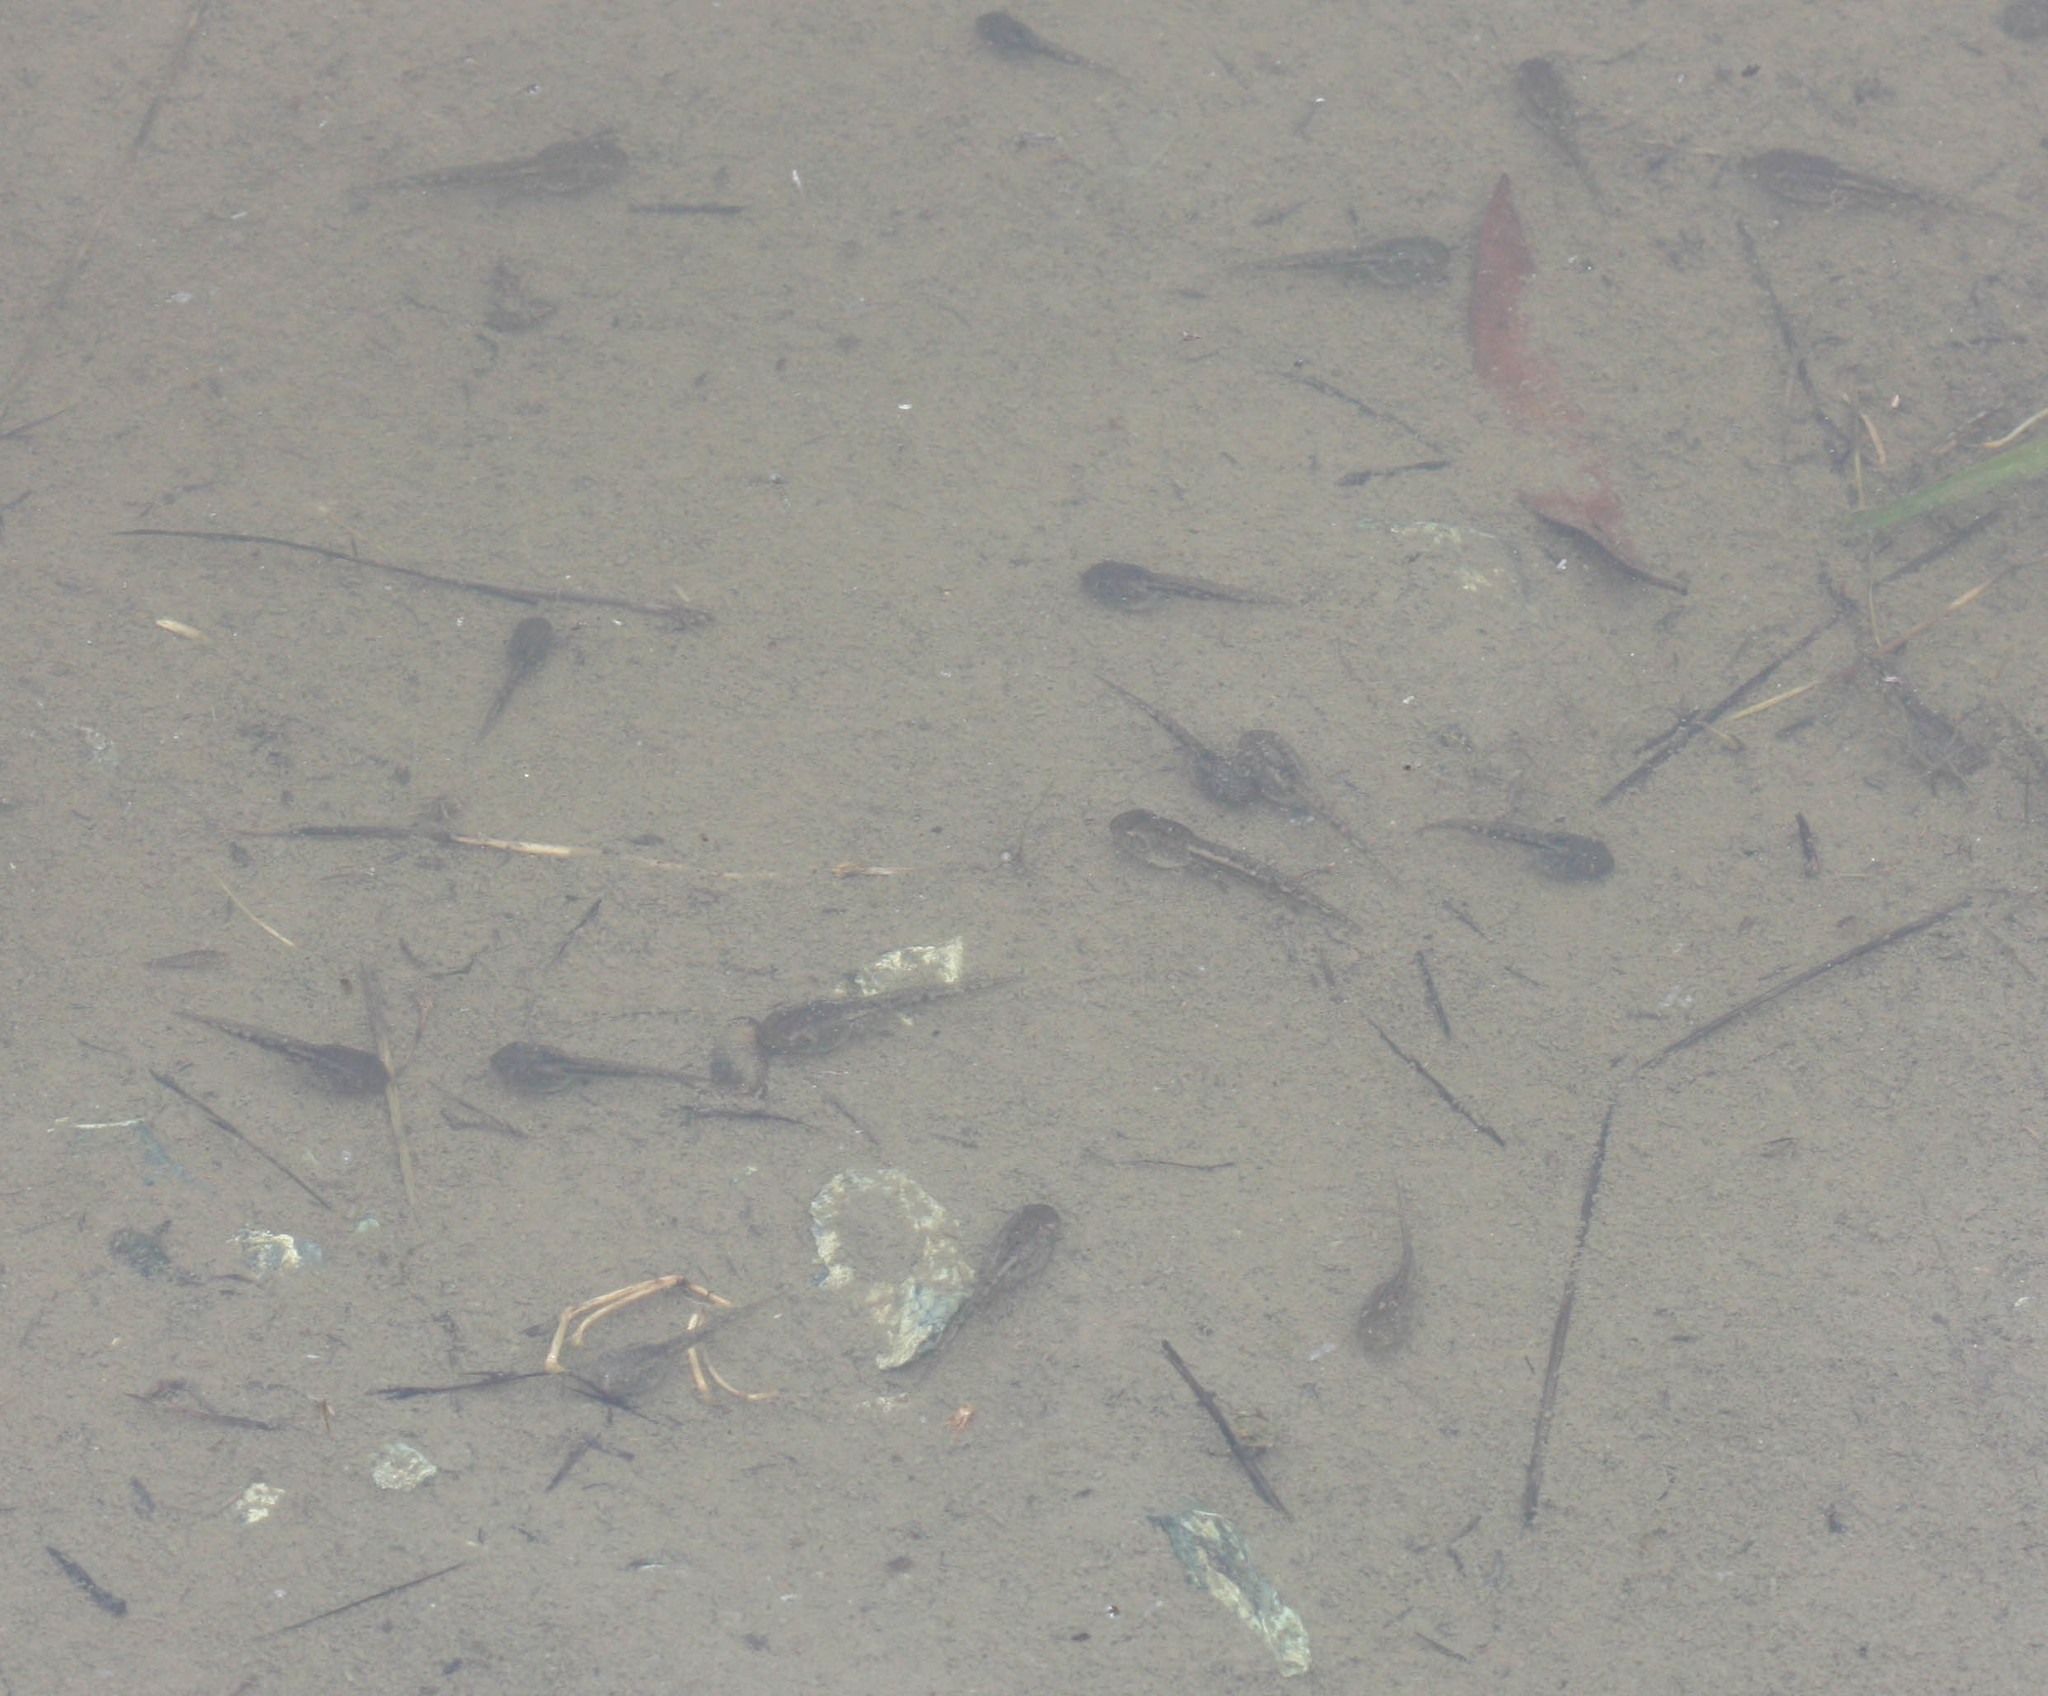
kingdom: Animalia
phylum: Chordata
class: Amphibia
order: Anura
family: Hylidae
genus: Pseudacris
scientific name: Pseudacris regilla
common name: Pacific chorus frog
